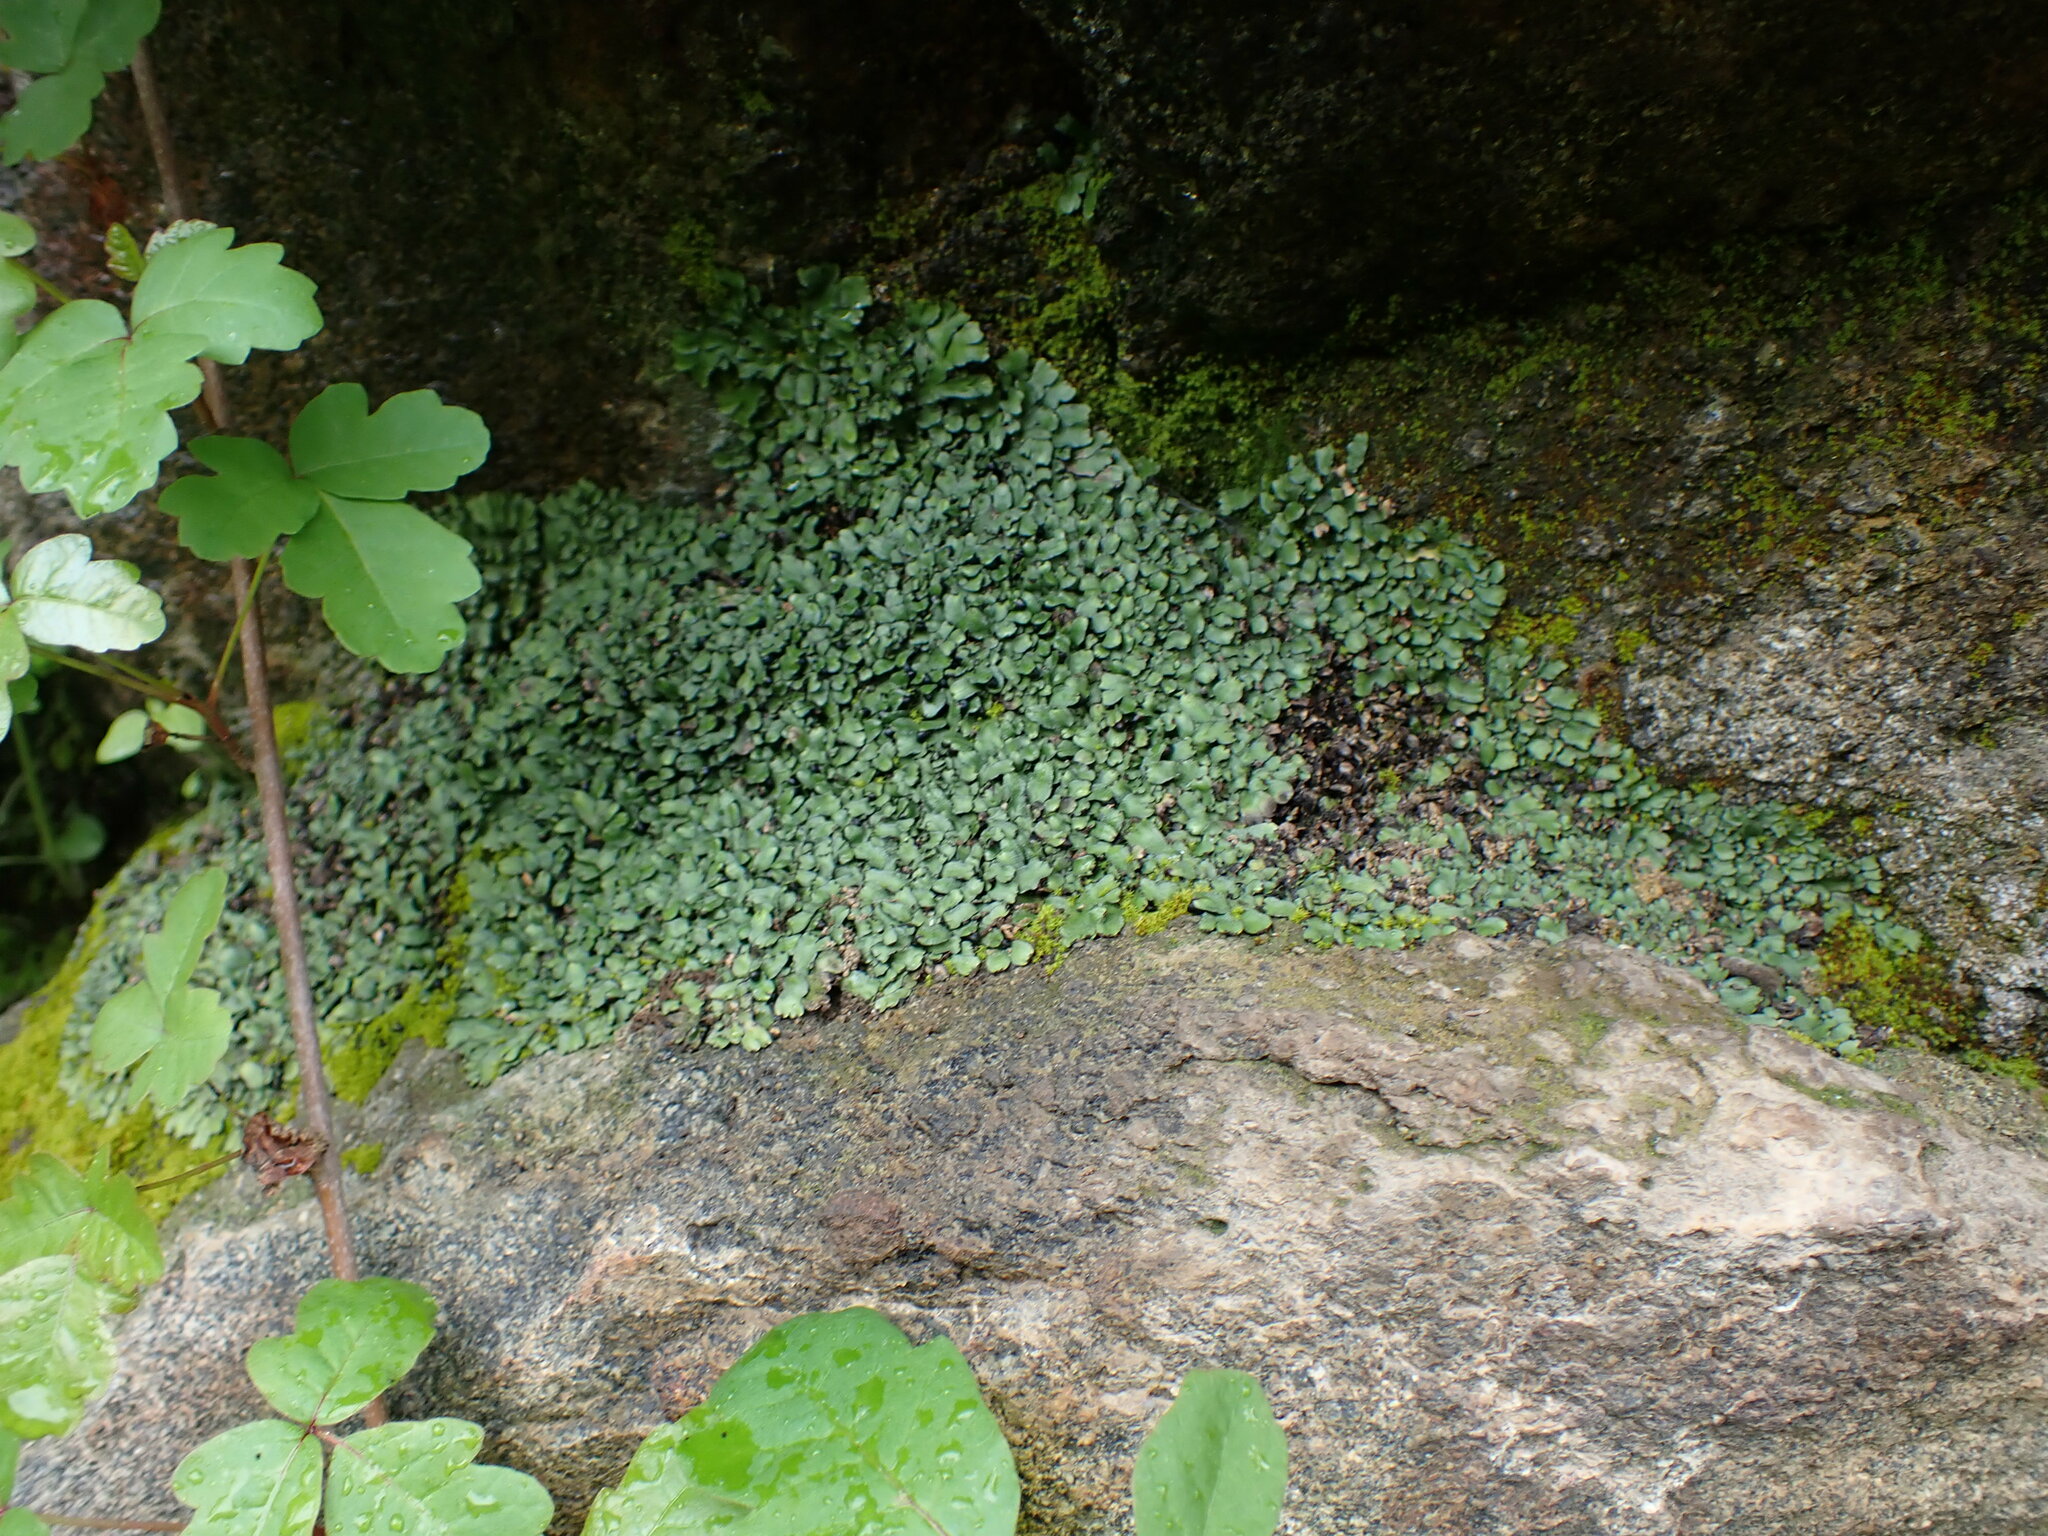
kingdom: Plantae
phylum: Marchantiophyta
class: Marchantiopsida
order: Marchantiales
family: Targioniaceae
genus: Targionia
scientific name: Targionia hypophylla
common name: Orobus-seed liverwort
